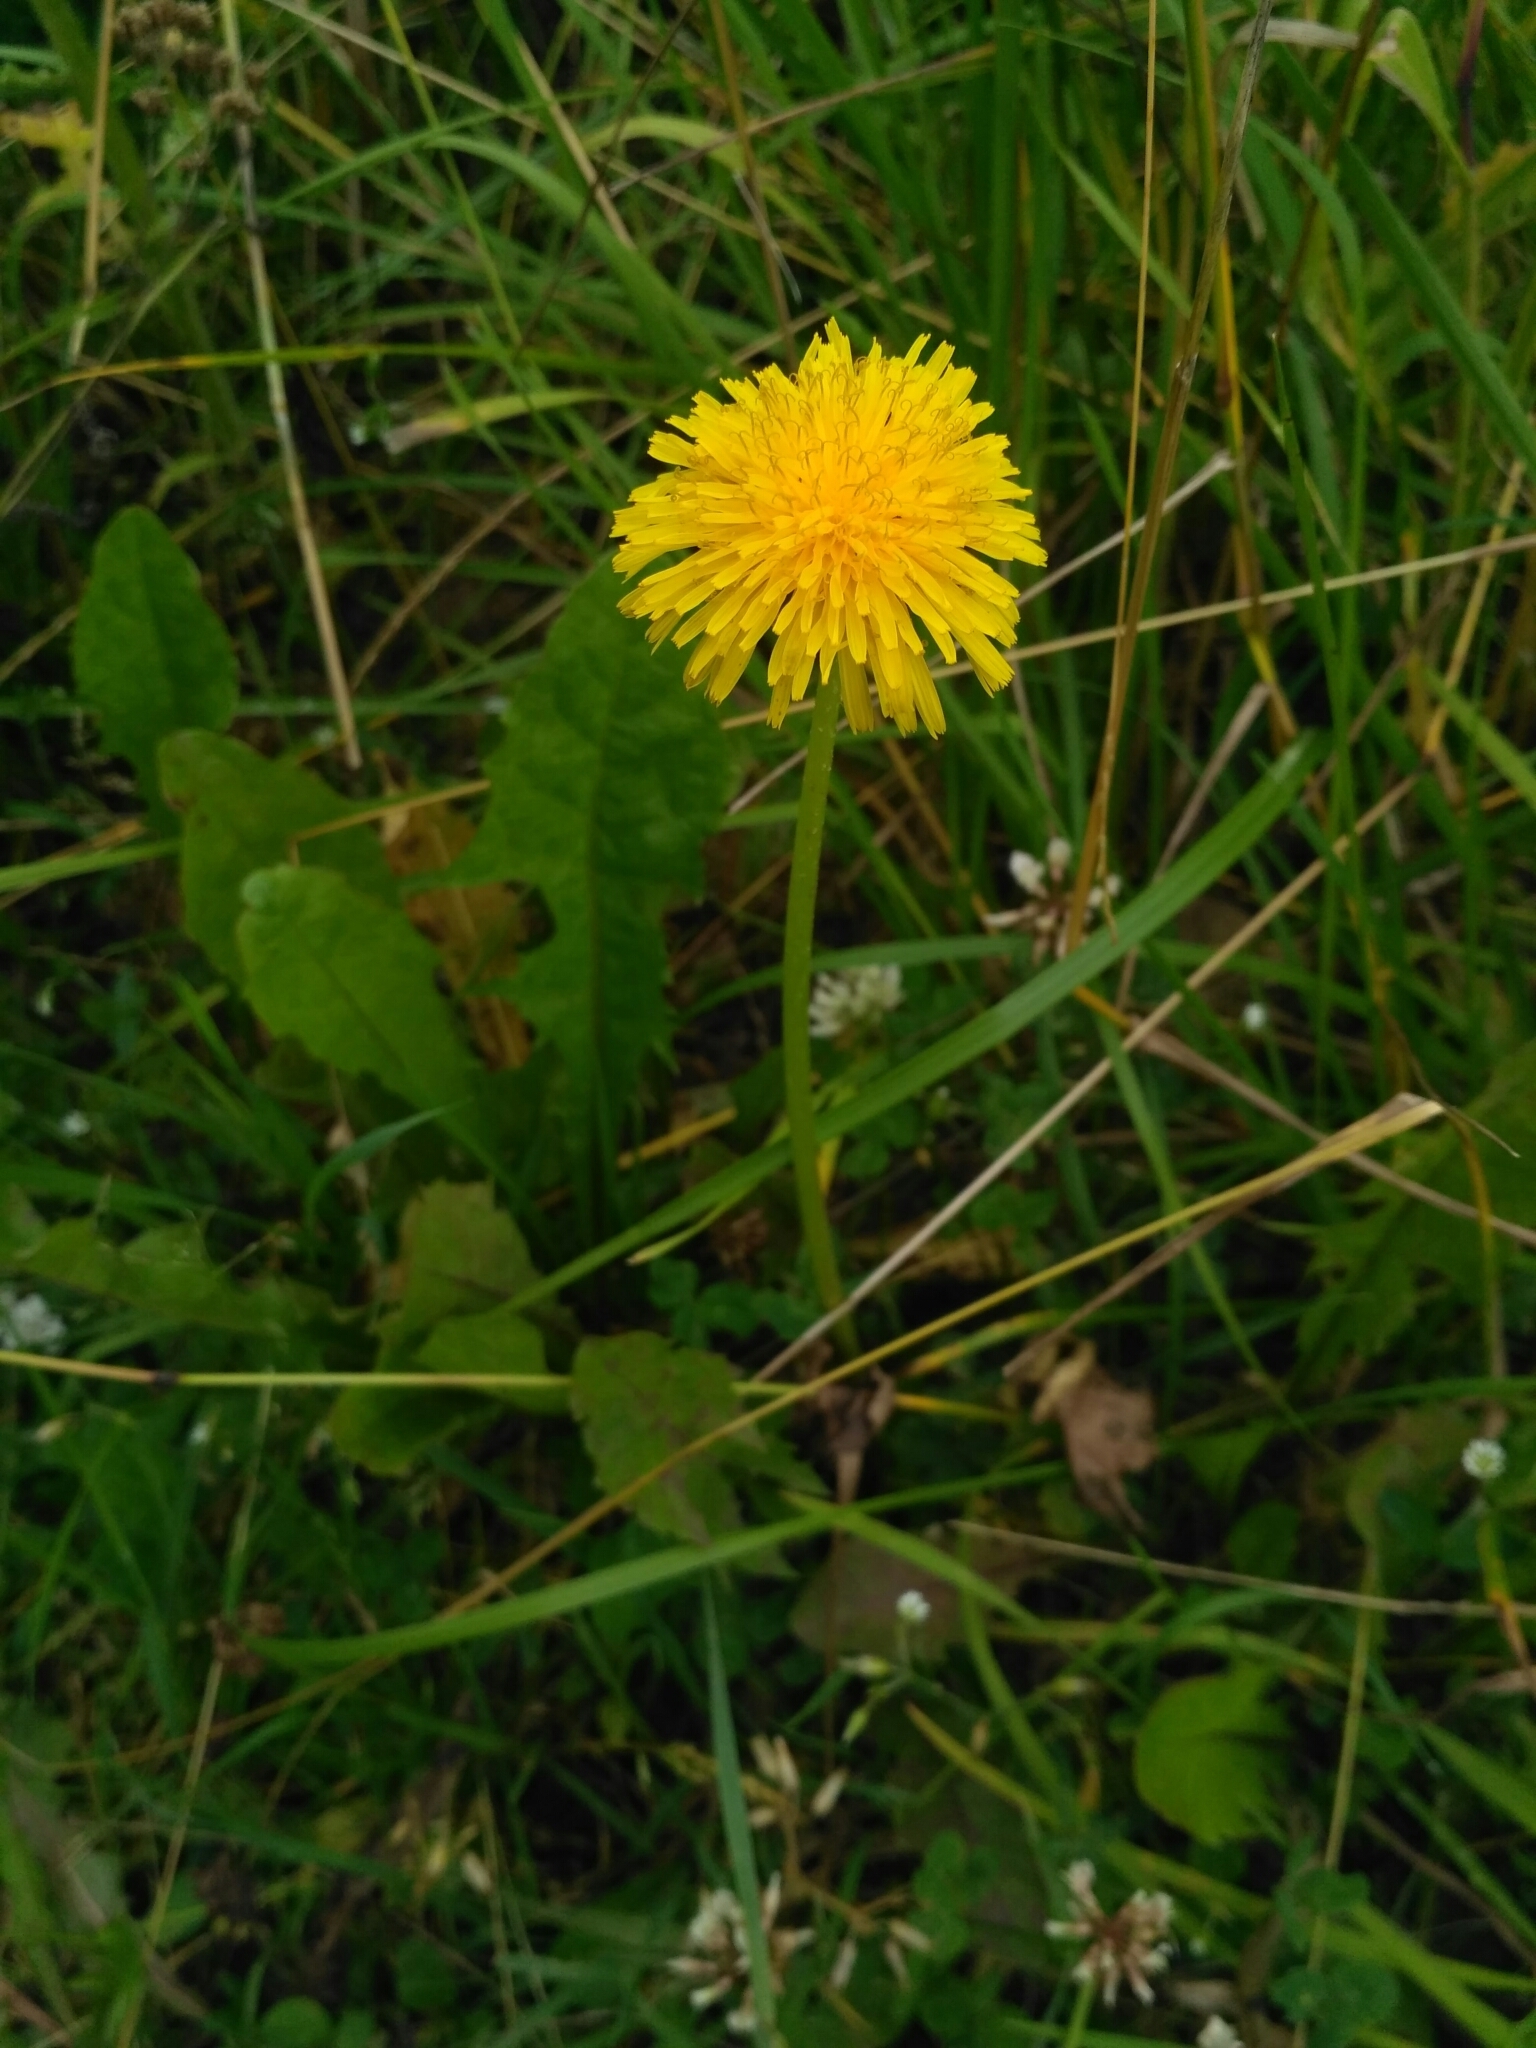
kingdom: Plantae
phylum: Tracheophyta
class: Magnoliopsida
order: Asterales
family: Asteraceae
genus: Taraxacum
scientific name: Taraxacum officinale
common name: Common dandelion
